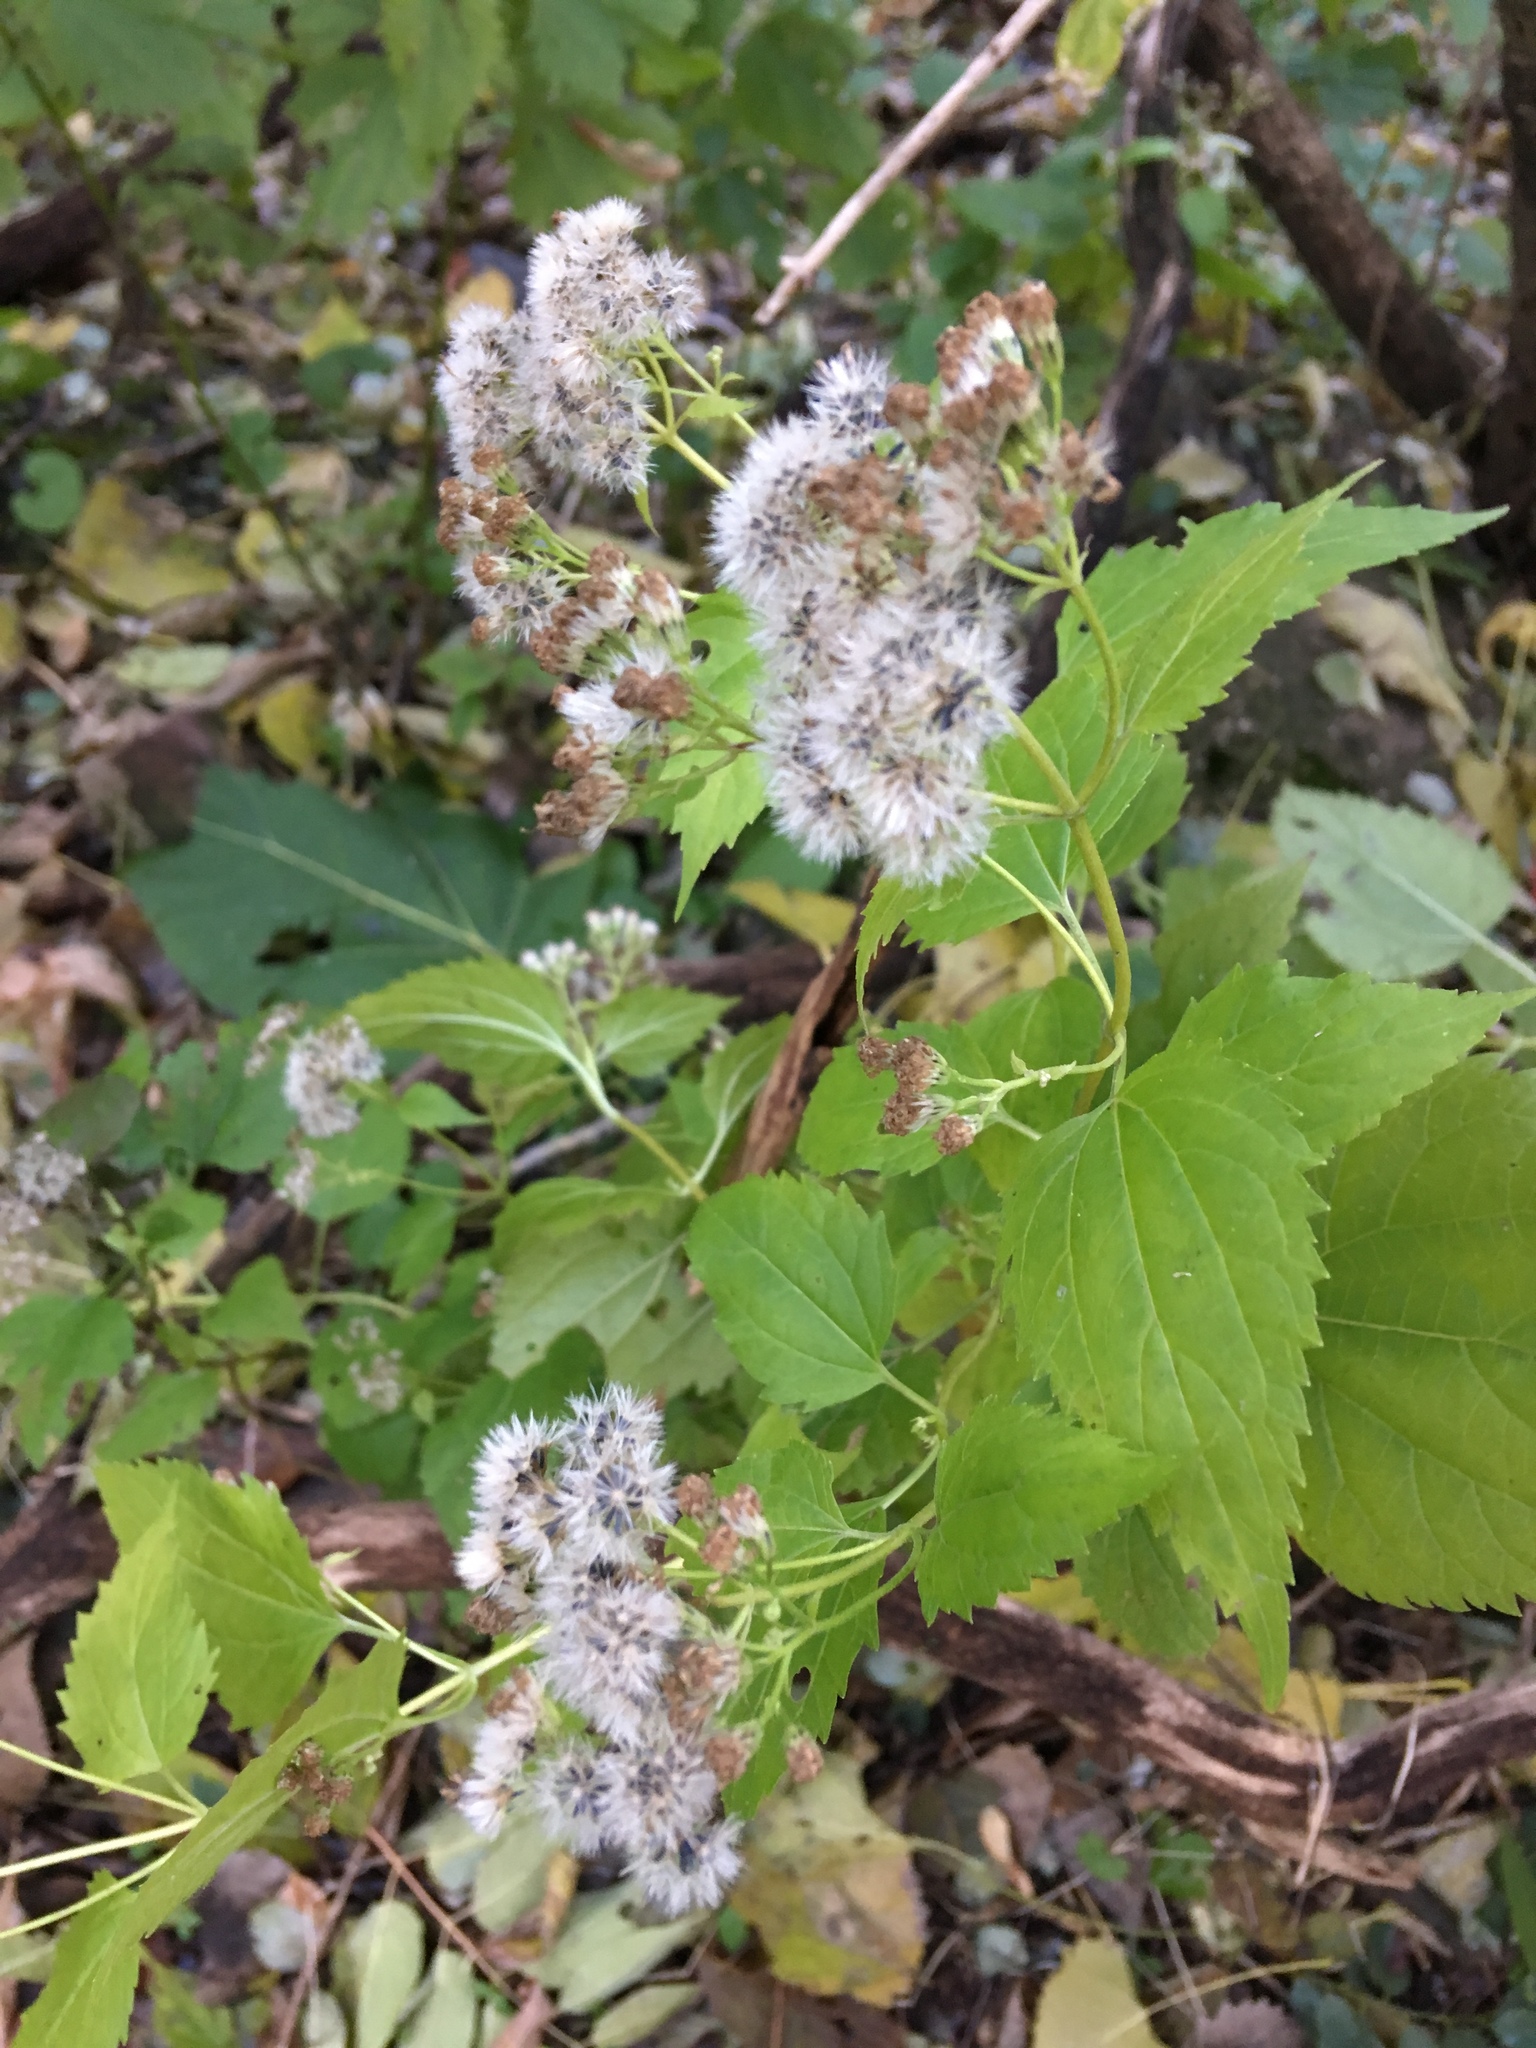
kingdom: Plantae
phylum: Tracheophyta
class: Magnoliopsida
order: Asterales
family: Asteraceae
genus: Ageratina
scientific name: Ageratina altissima
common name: White snakeroot
